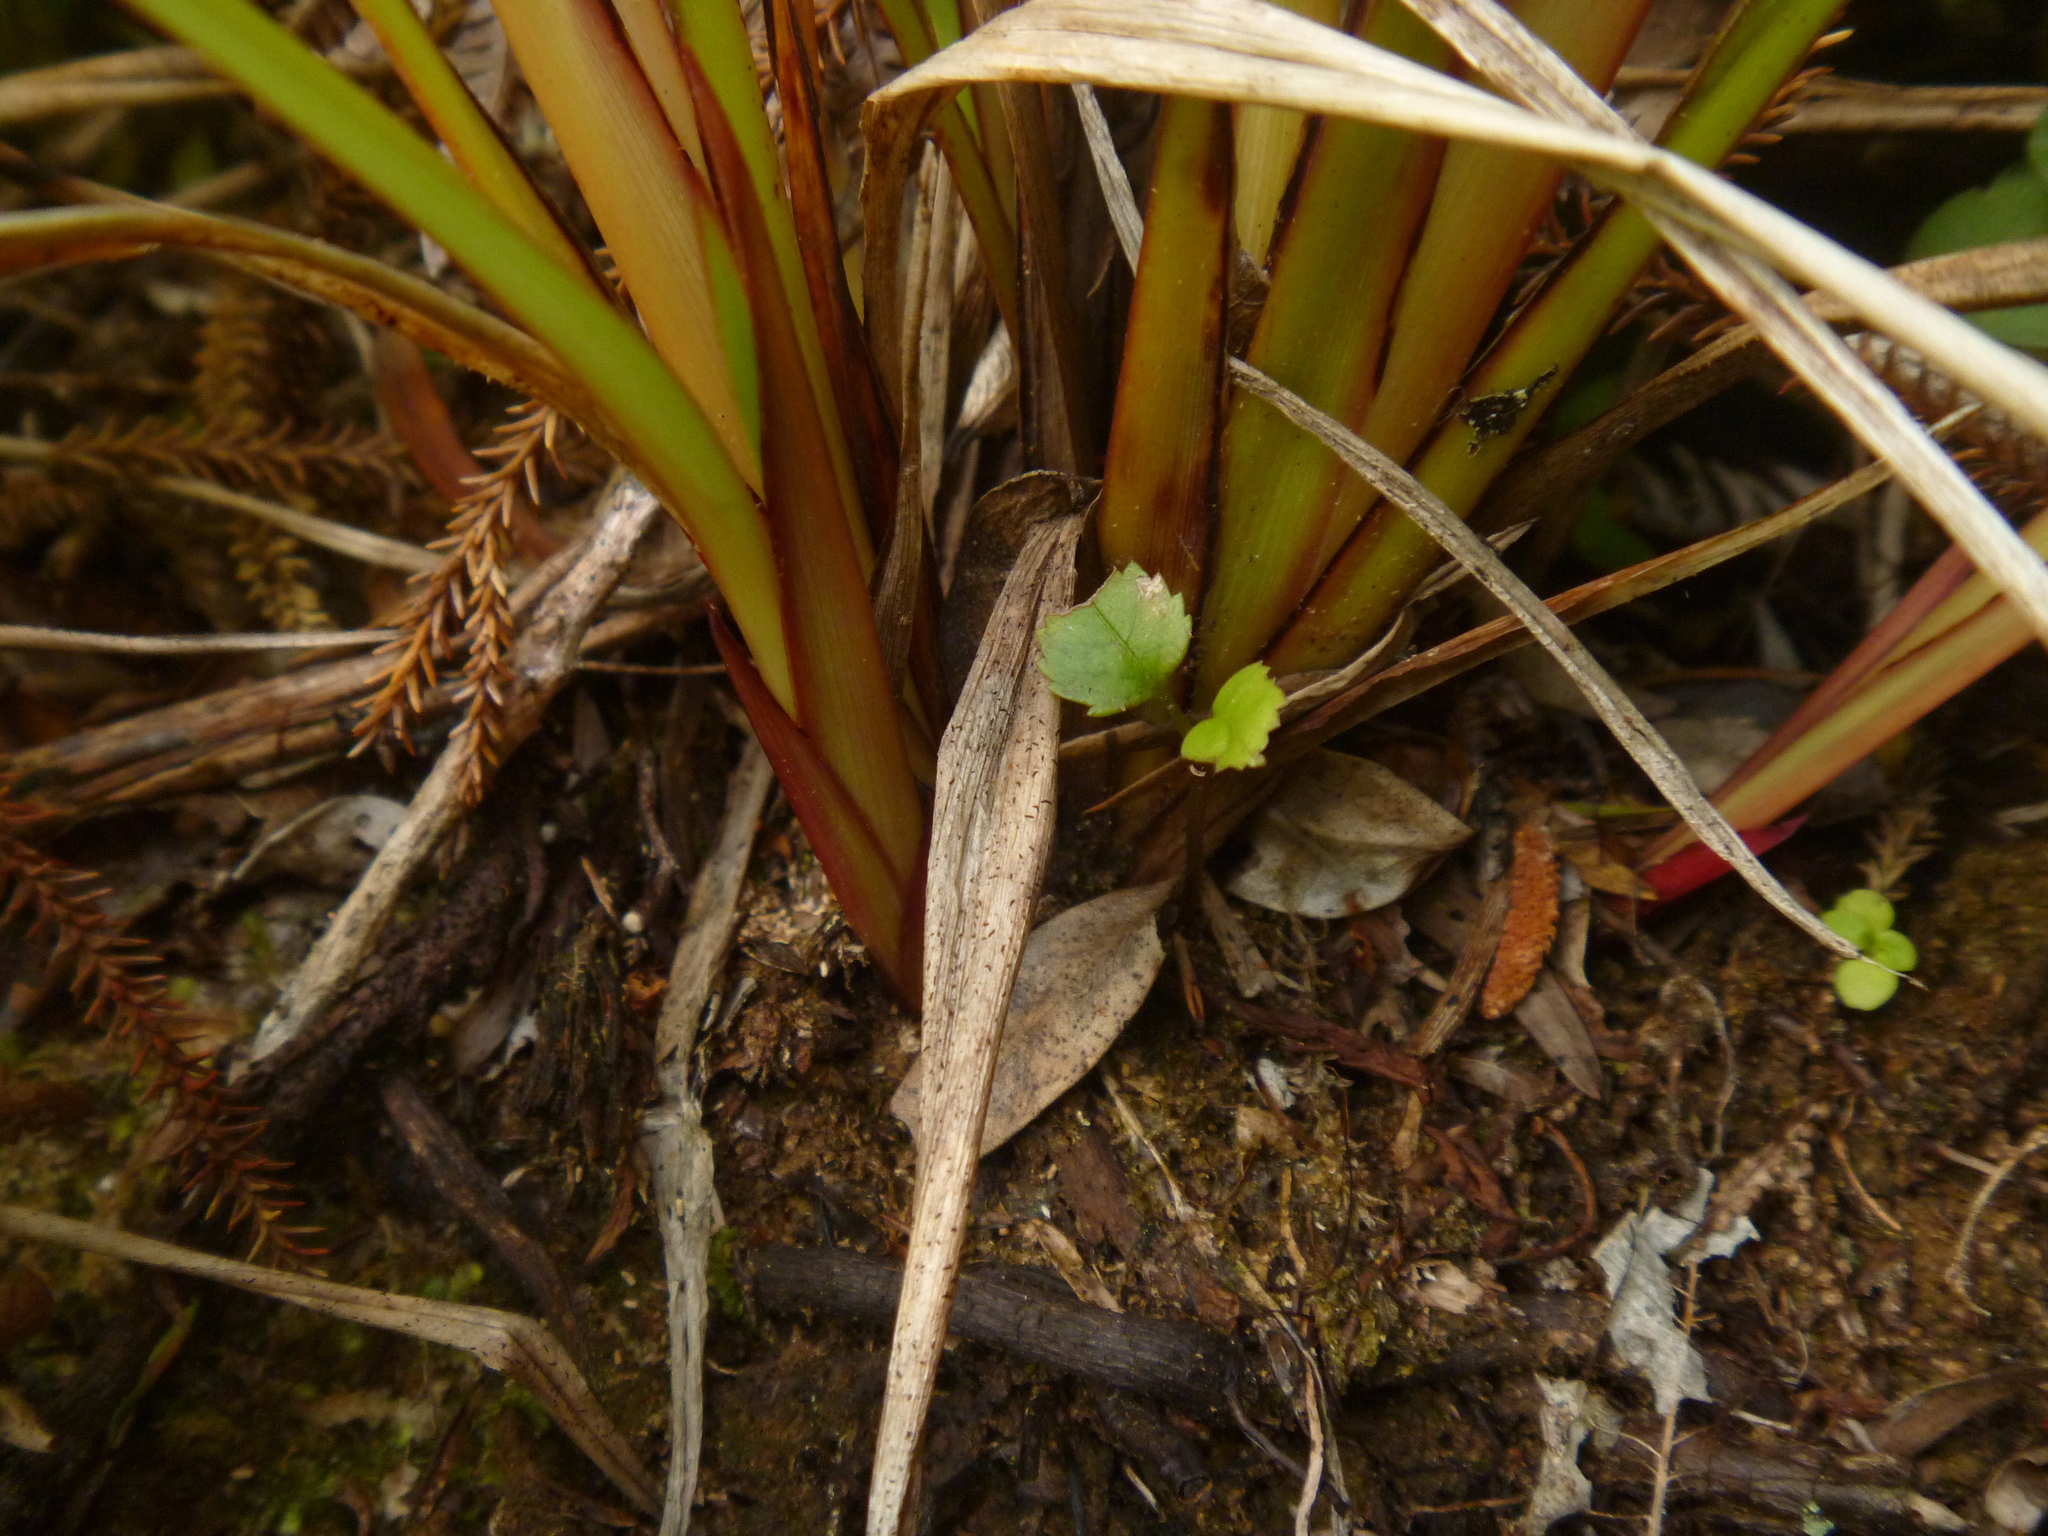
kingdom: Plantae
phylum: Tracheophyta
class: Liliopsida
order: Asparagales
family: Asphodelaceae
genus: Dianella
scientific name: Dianella nigra
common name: New zealand-blueberry
